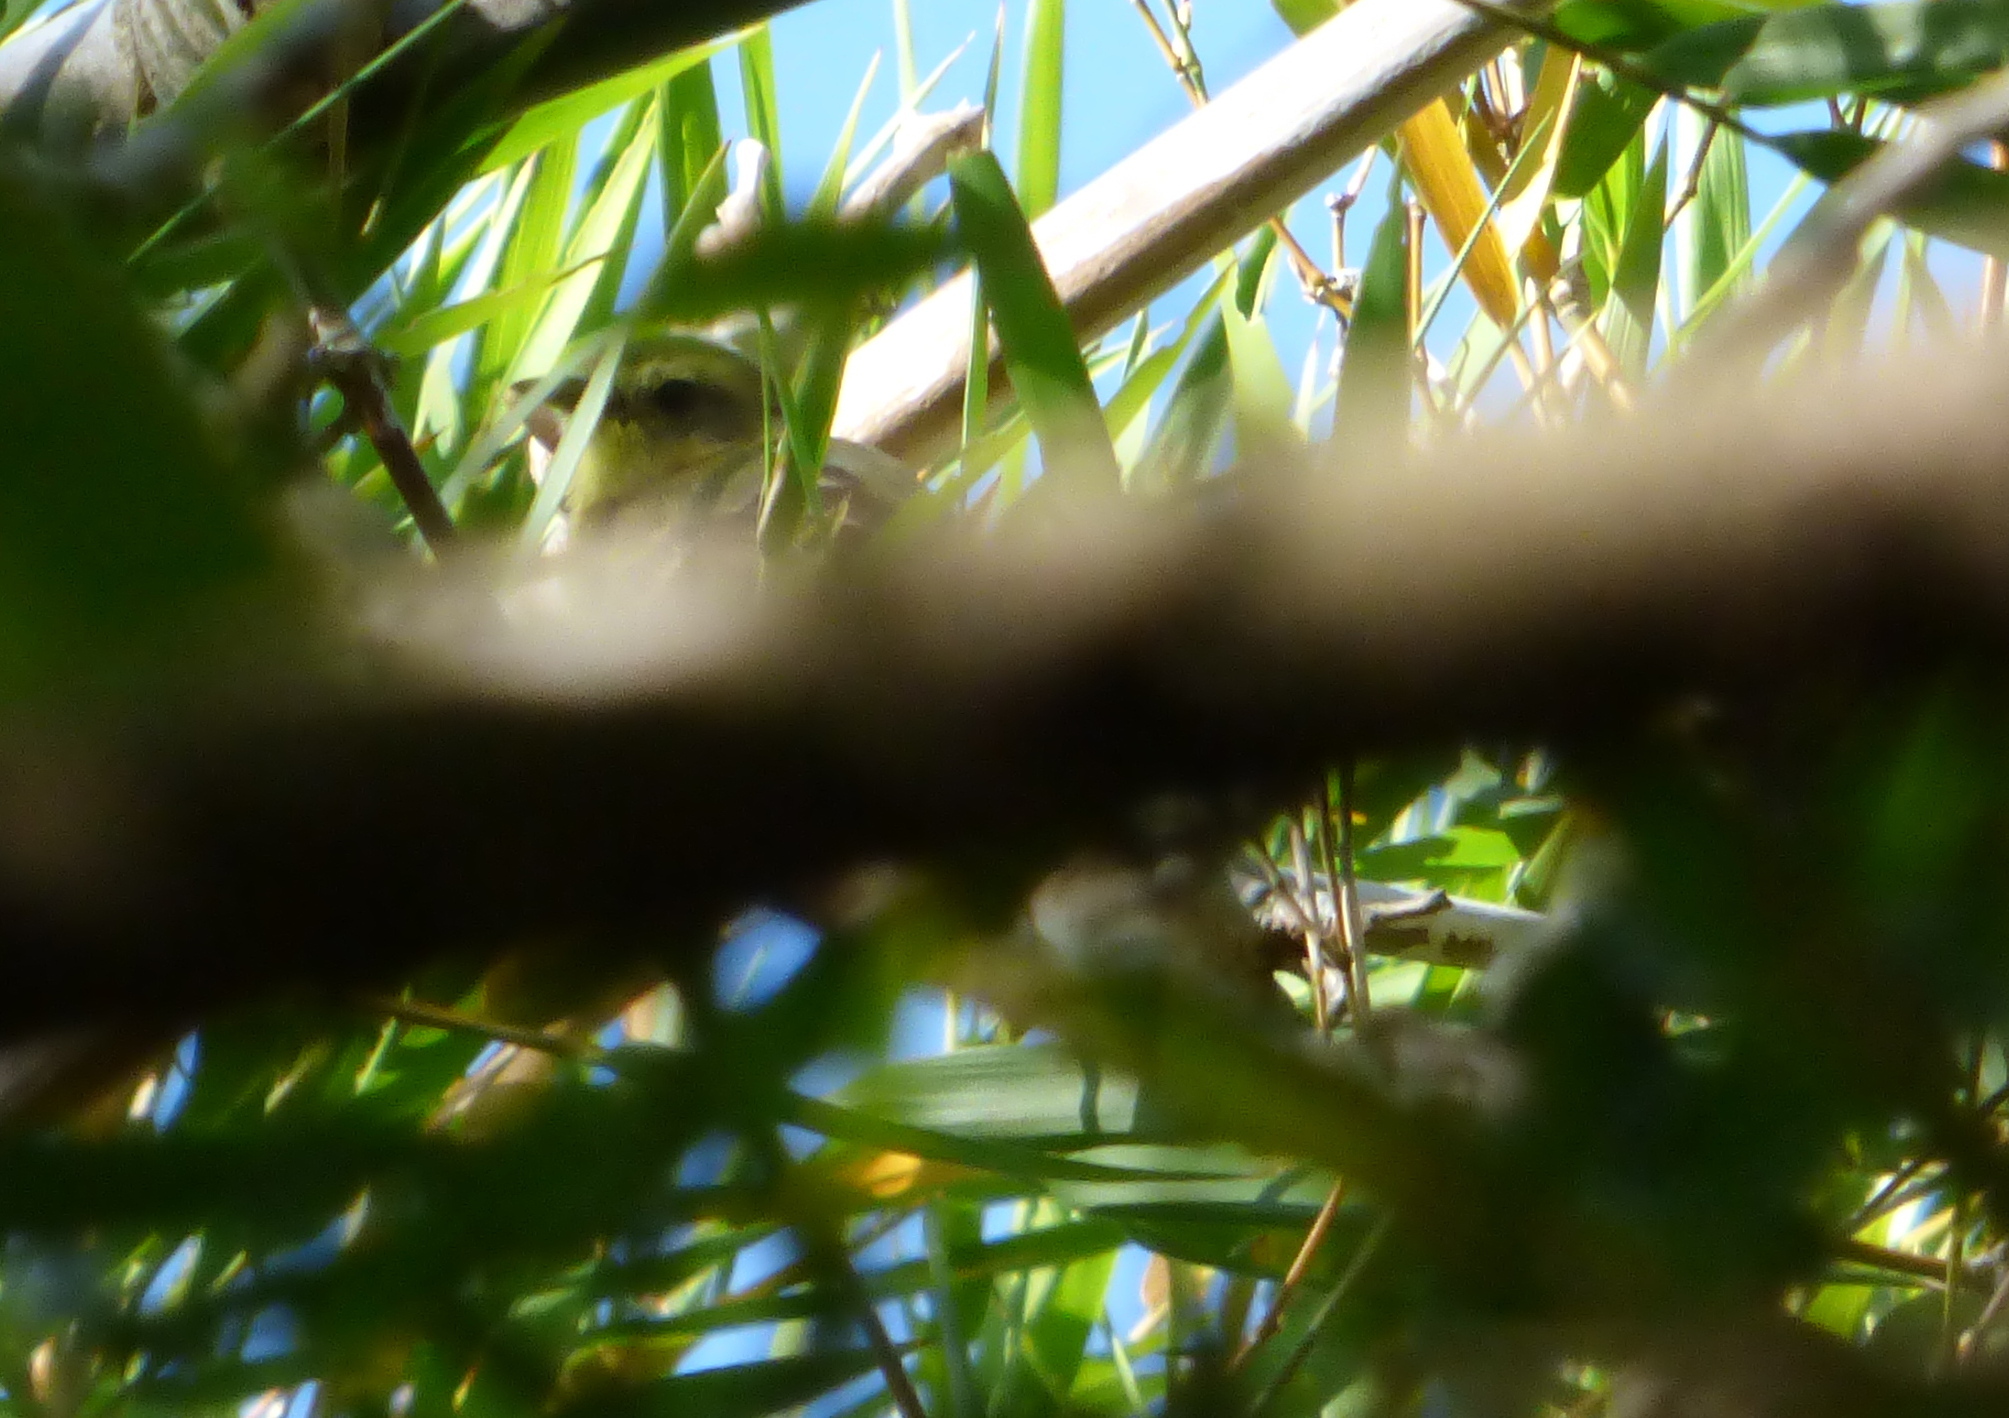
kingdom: Animalia
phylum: Chordata
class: Aves
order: Passeriformes
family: Tyrannidae
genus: Capsiempis
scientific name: Capsiempis flaveola
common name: Yellow tyrannulet
